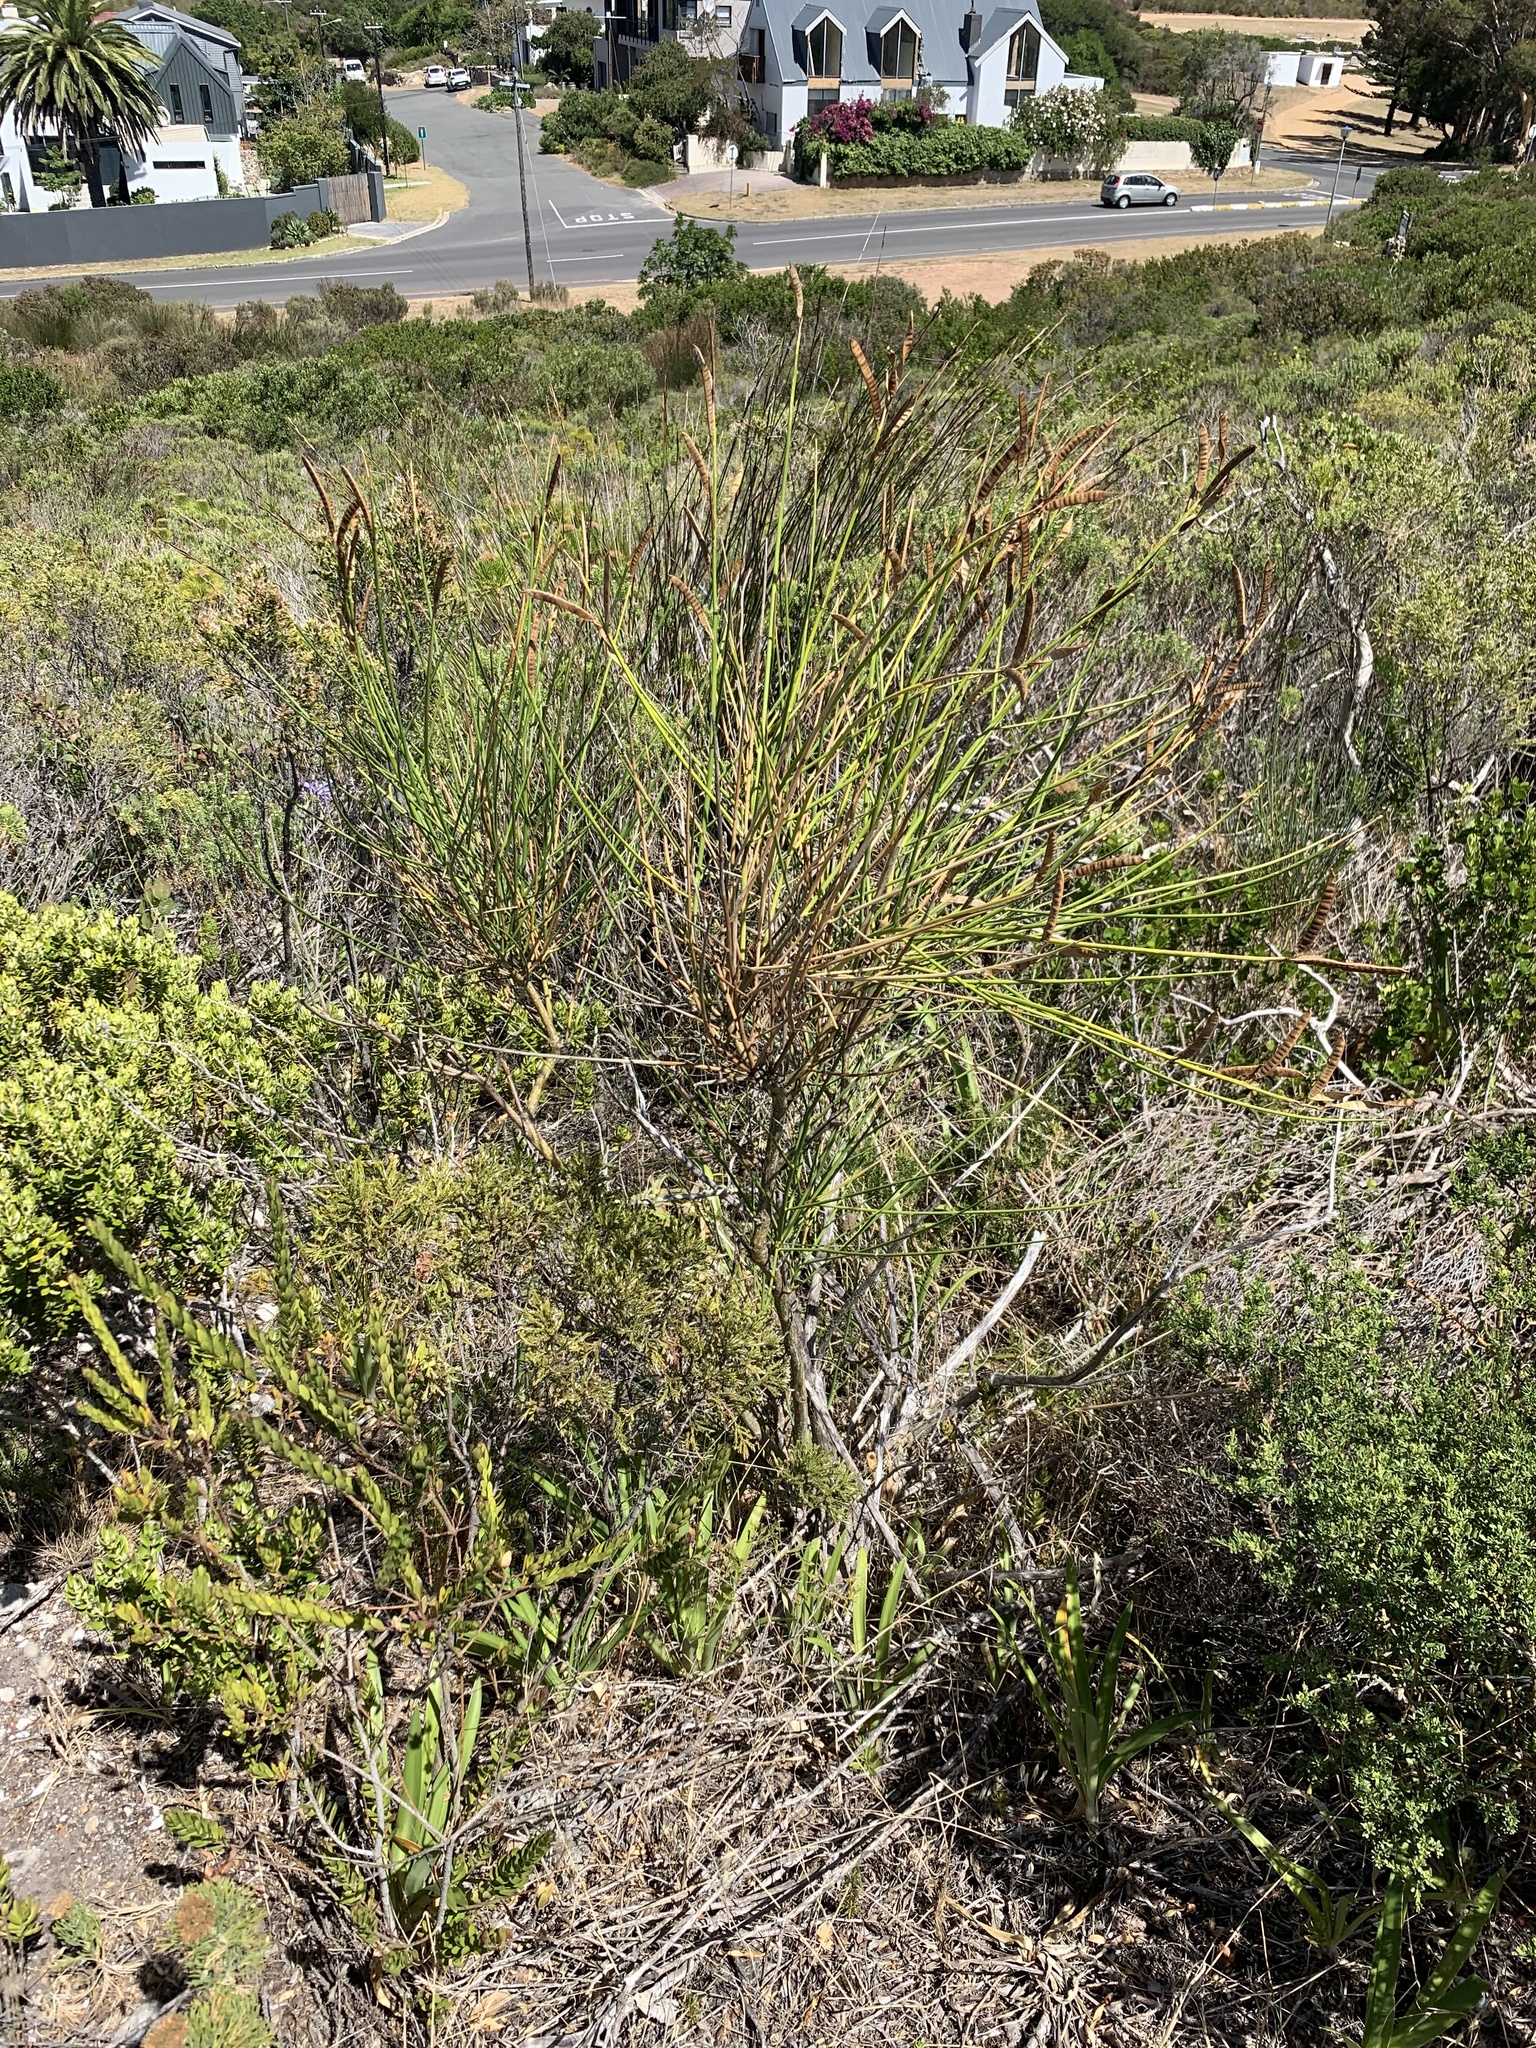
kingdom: Plantae
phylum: Tracheophyta
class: Magnoliopsida
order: Fabales
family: Fabaceae
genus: Spartium
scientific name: Spartium junceum
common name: Spanish broom
